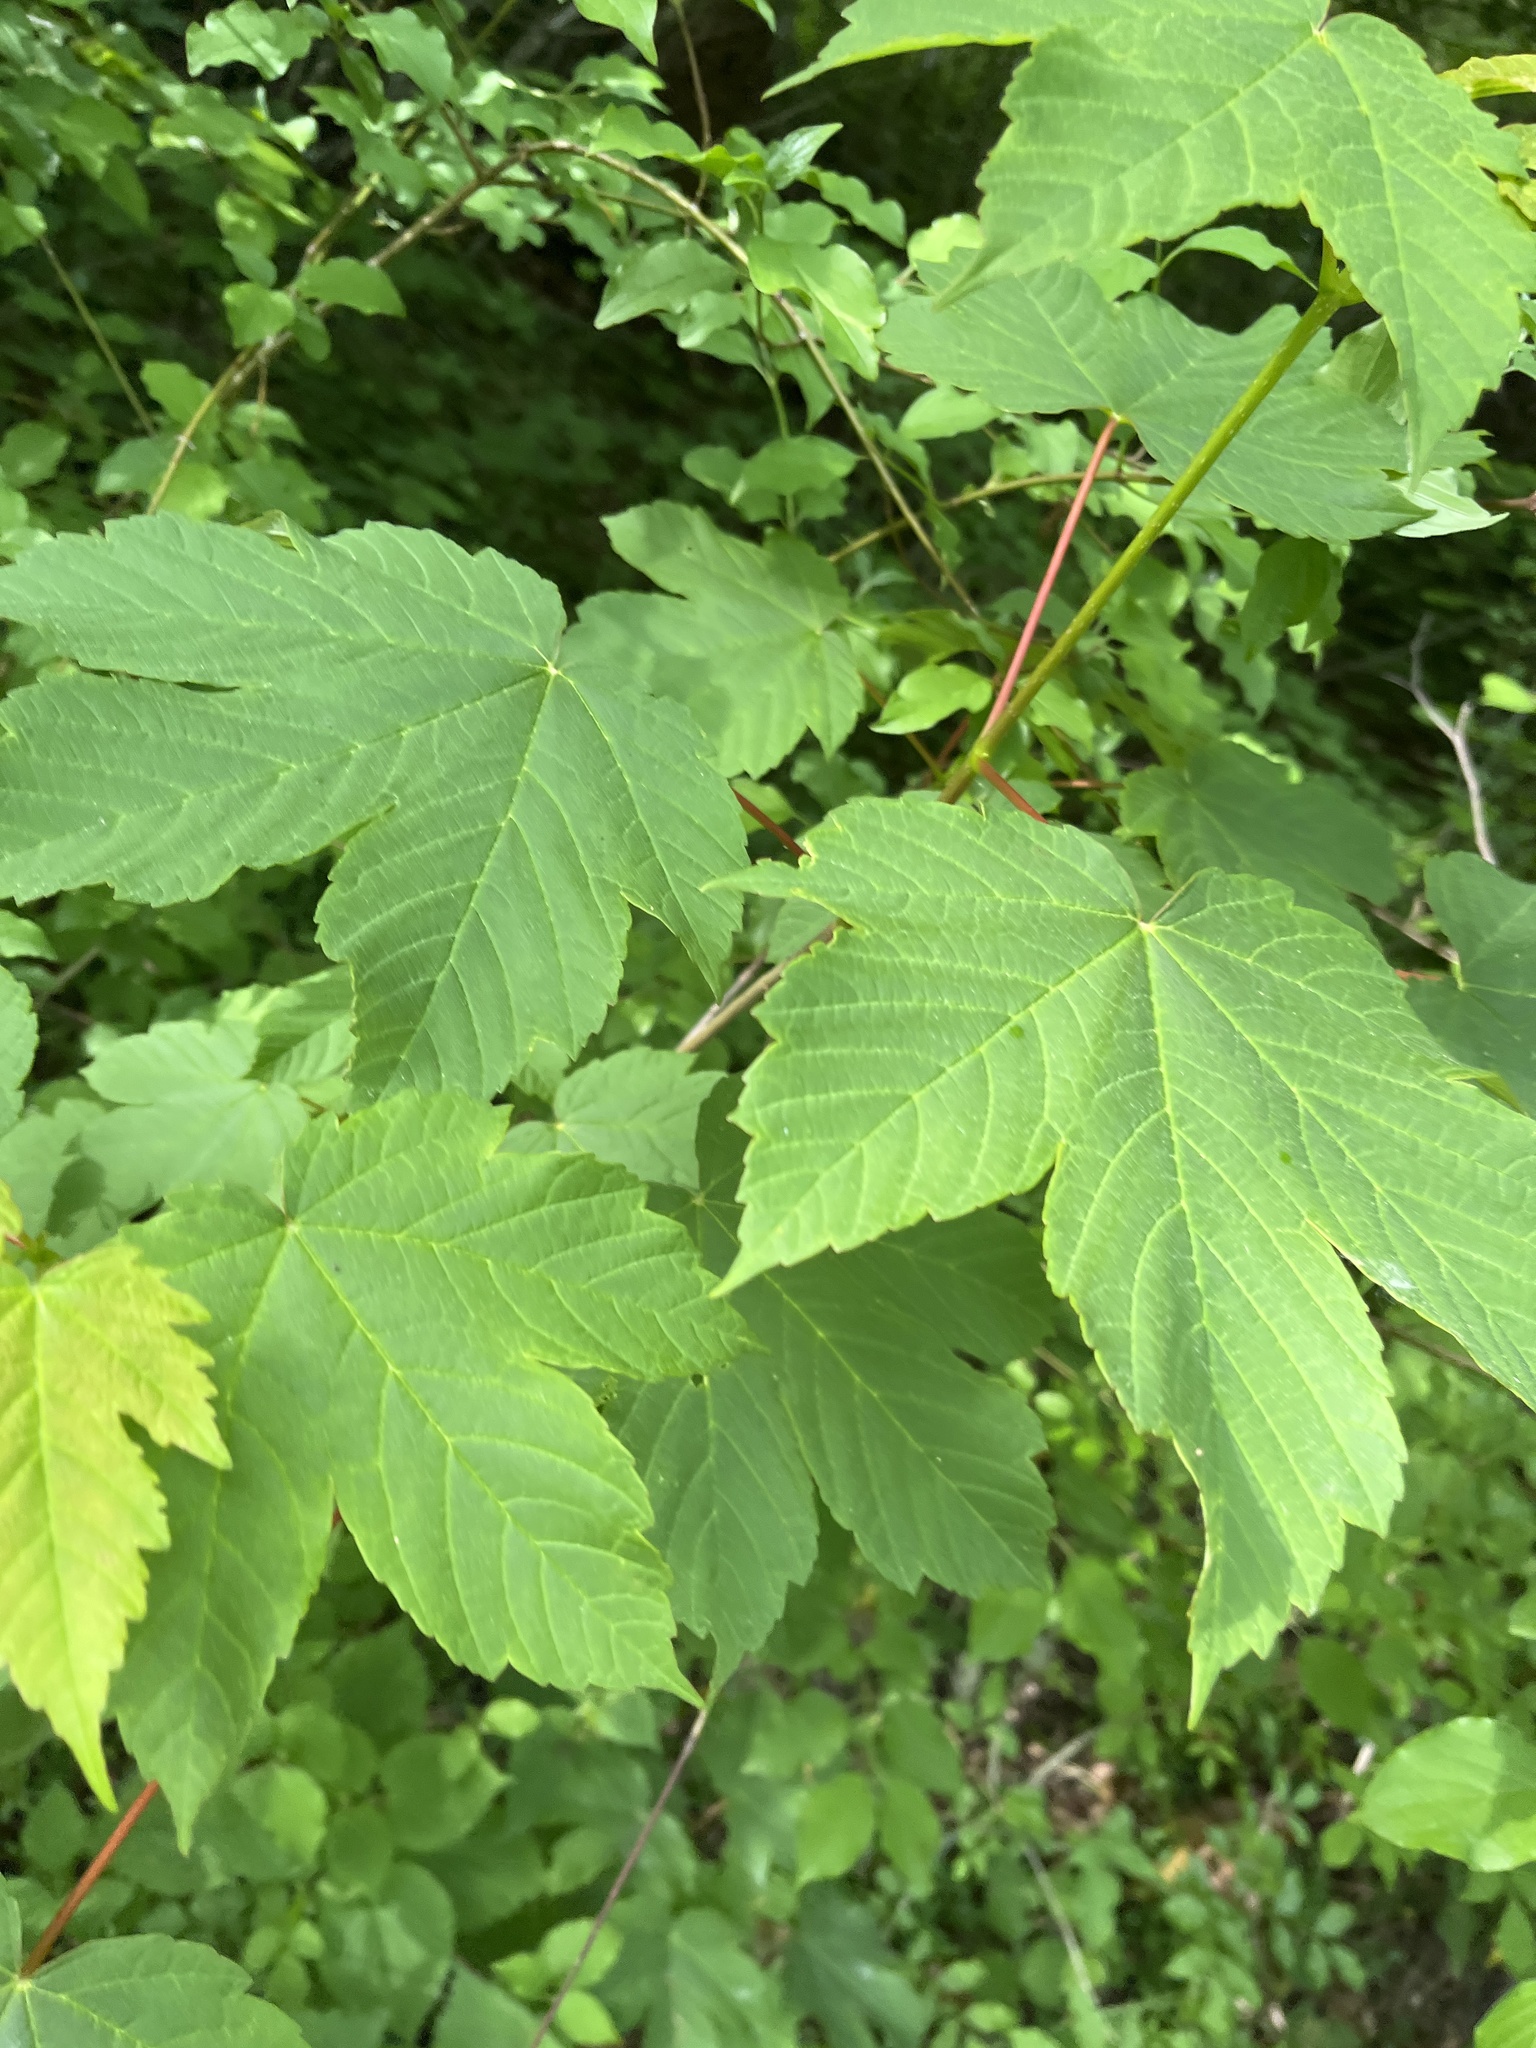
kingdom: Plantae
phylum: Tracheophyta
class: Magnoliopsida
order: Sapindales
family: Sapindaceae
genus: Acer
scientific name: Acer pseudoplatanus
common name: Sycamore
